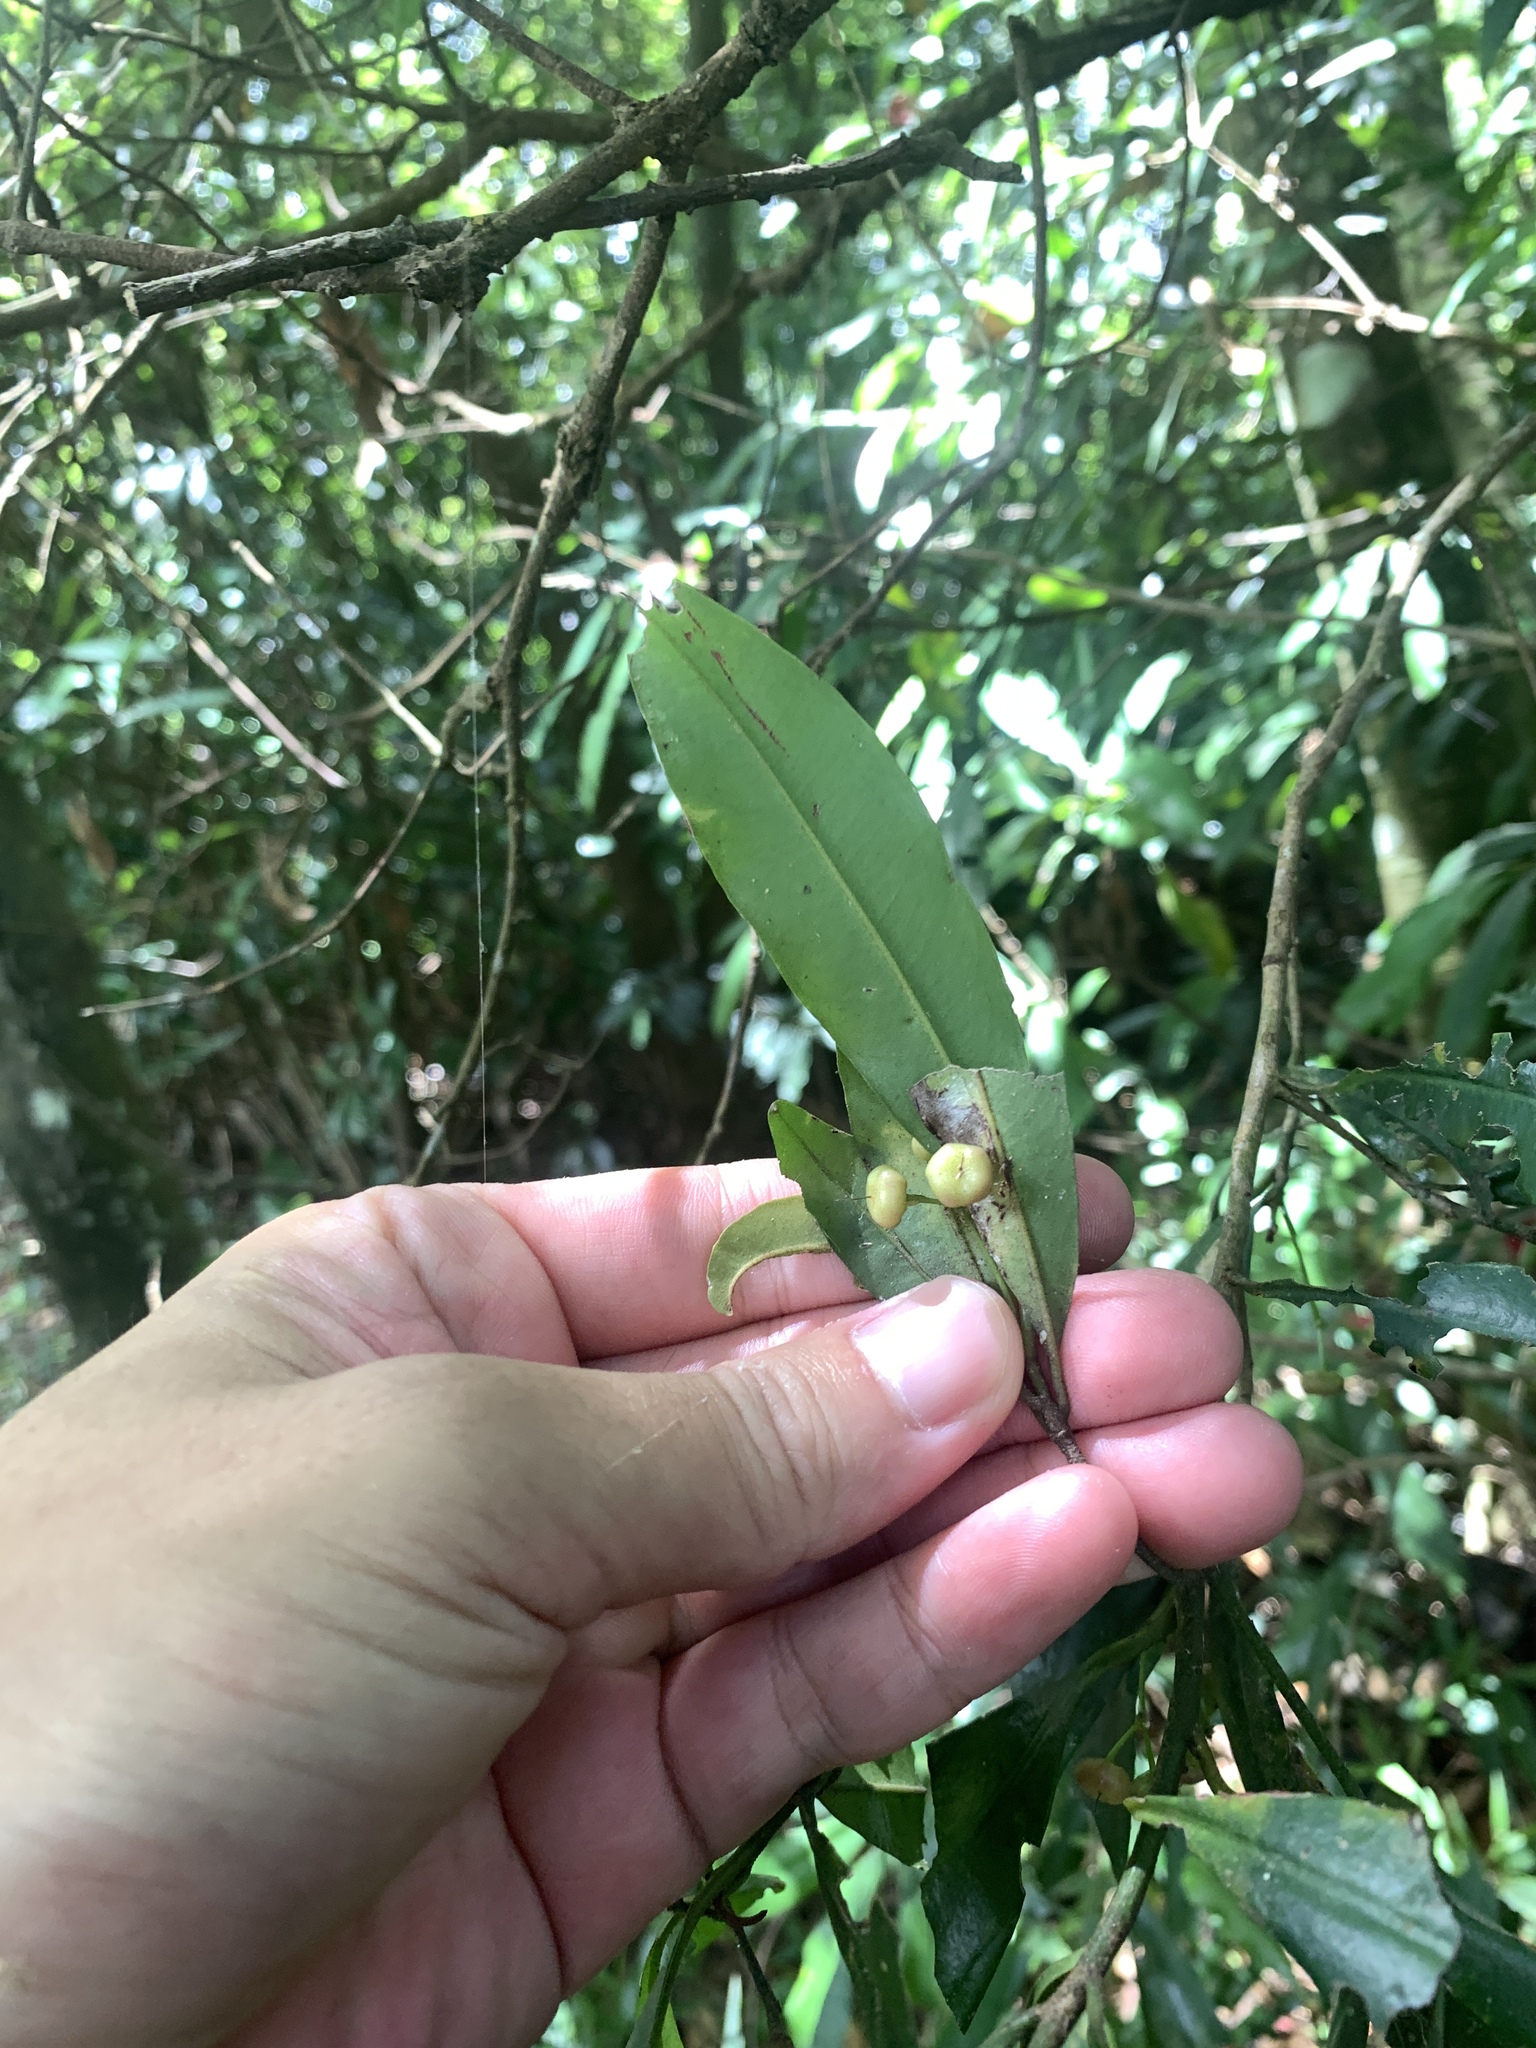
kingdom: Plantae
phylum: Tracheophyta
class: Magnoliopsida
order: Ericales
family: Primulaceae
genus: Ardisia
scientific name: Ardisia quinquegona
